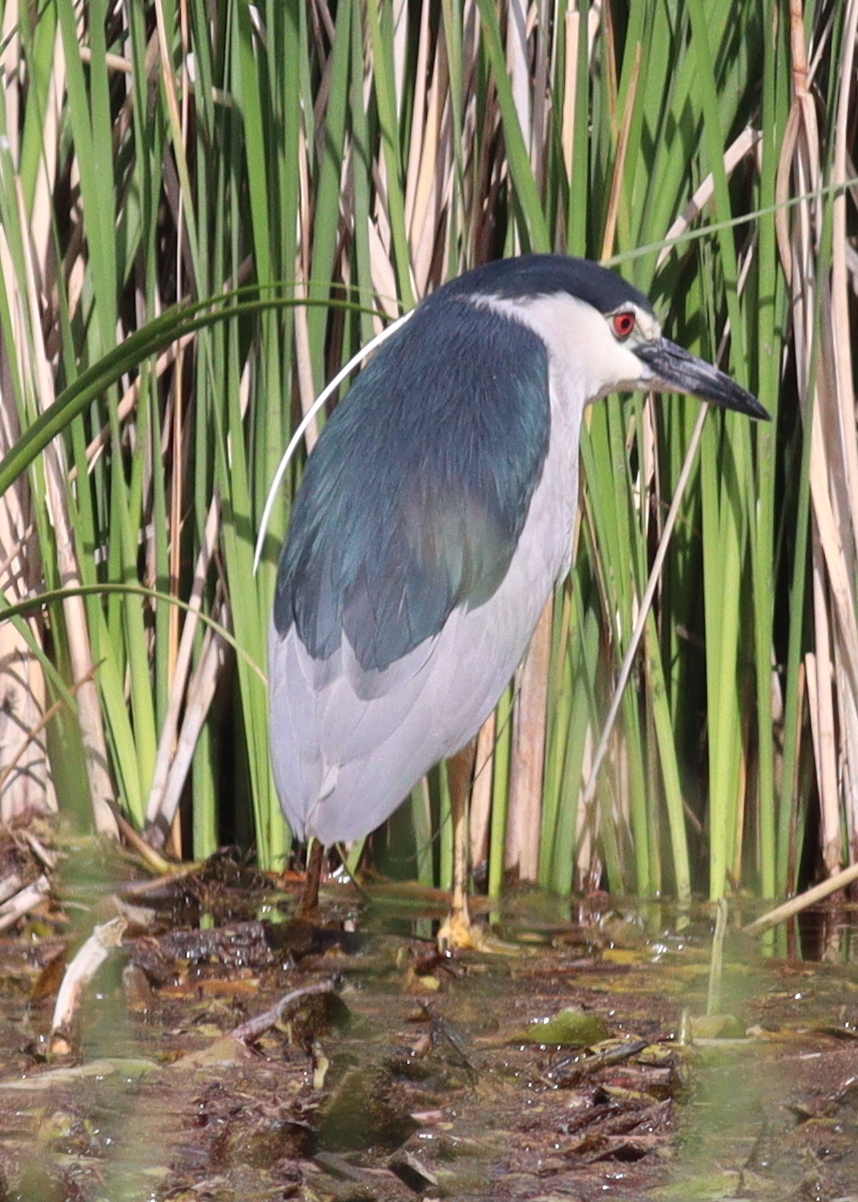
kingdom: Animalia
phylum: Chordata
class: Aves
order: Pelecaniformes
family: Ardeidae
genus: Nycticorax
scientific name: Nycticorax nycticorax
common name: Black-crowned night heron
